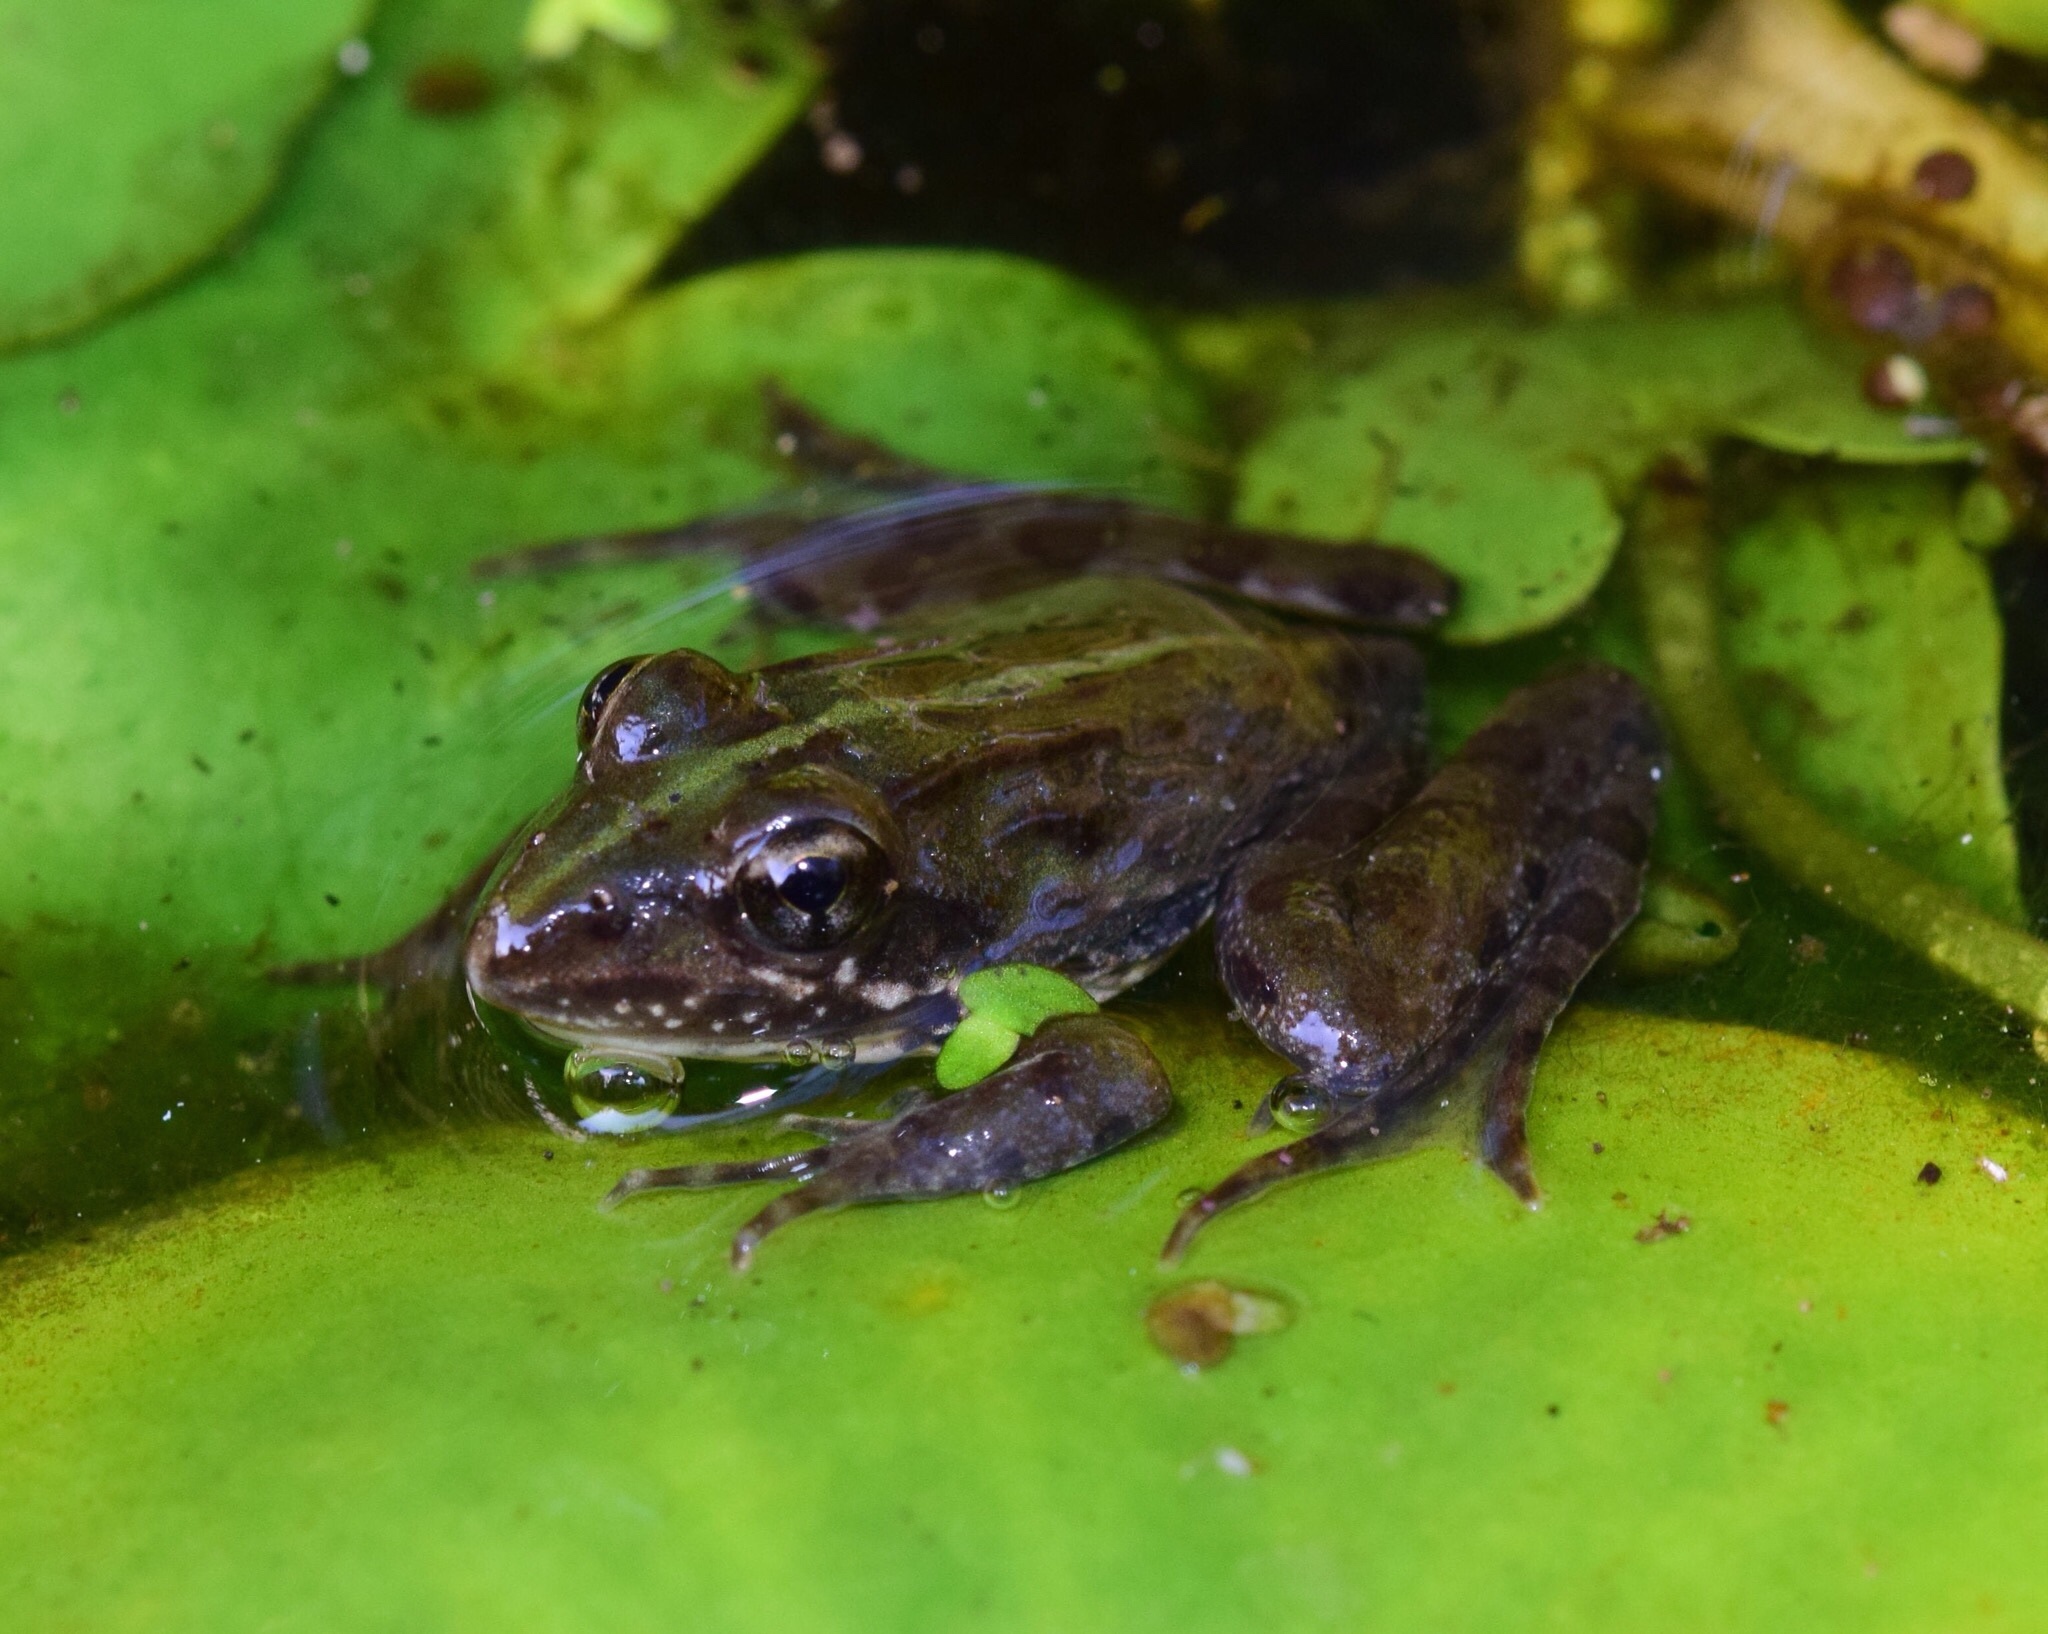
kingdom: Animalia
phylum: Chordata
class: Amphibia
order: Anura
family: Pyxicephalidae
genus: Amietia
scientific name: Amietia delalandii
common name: Delalande's river frog
